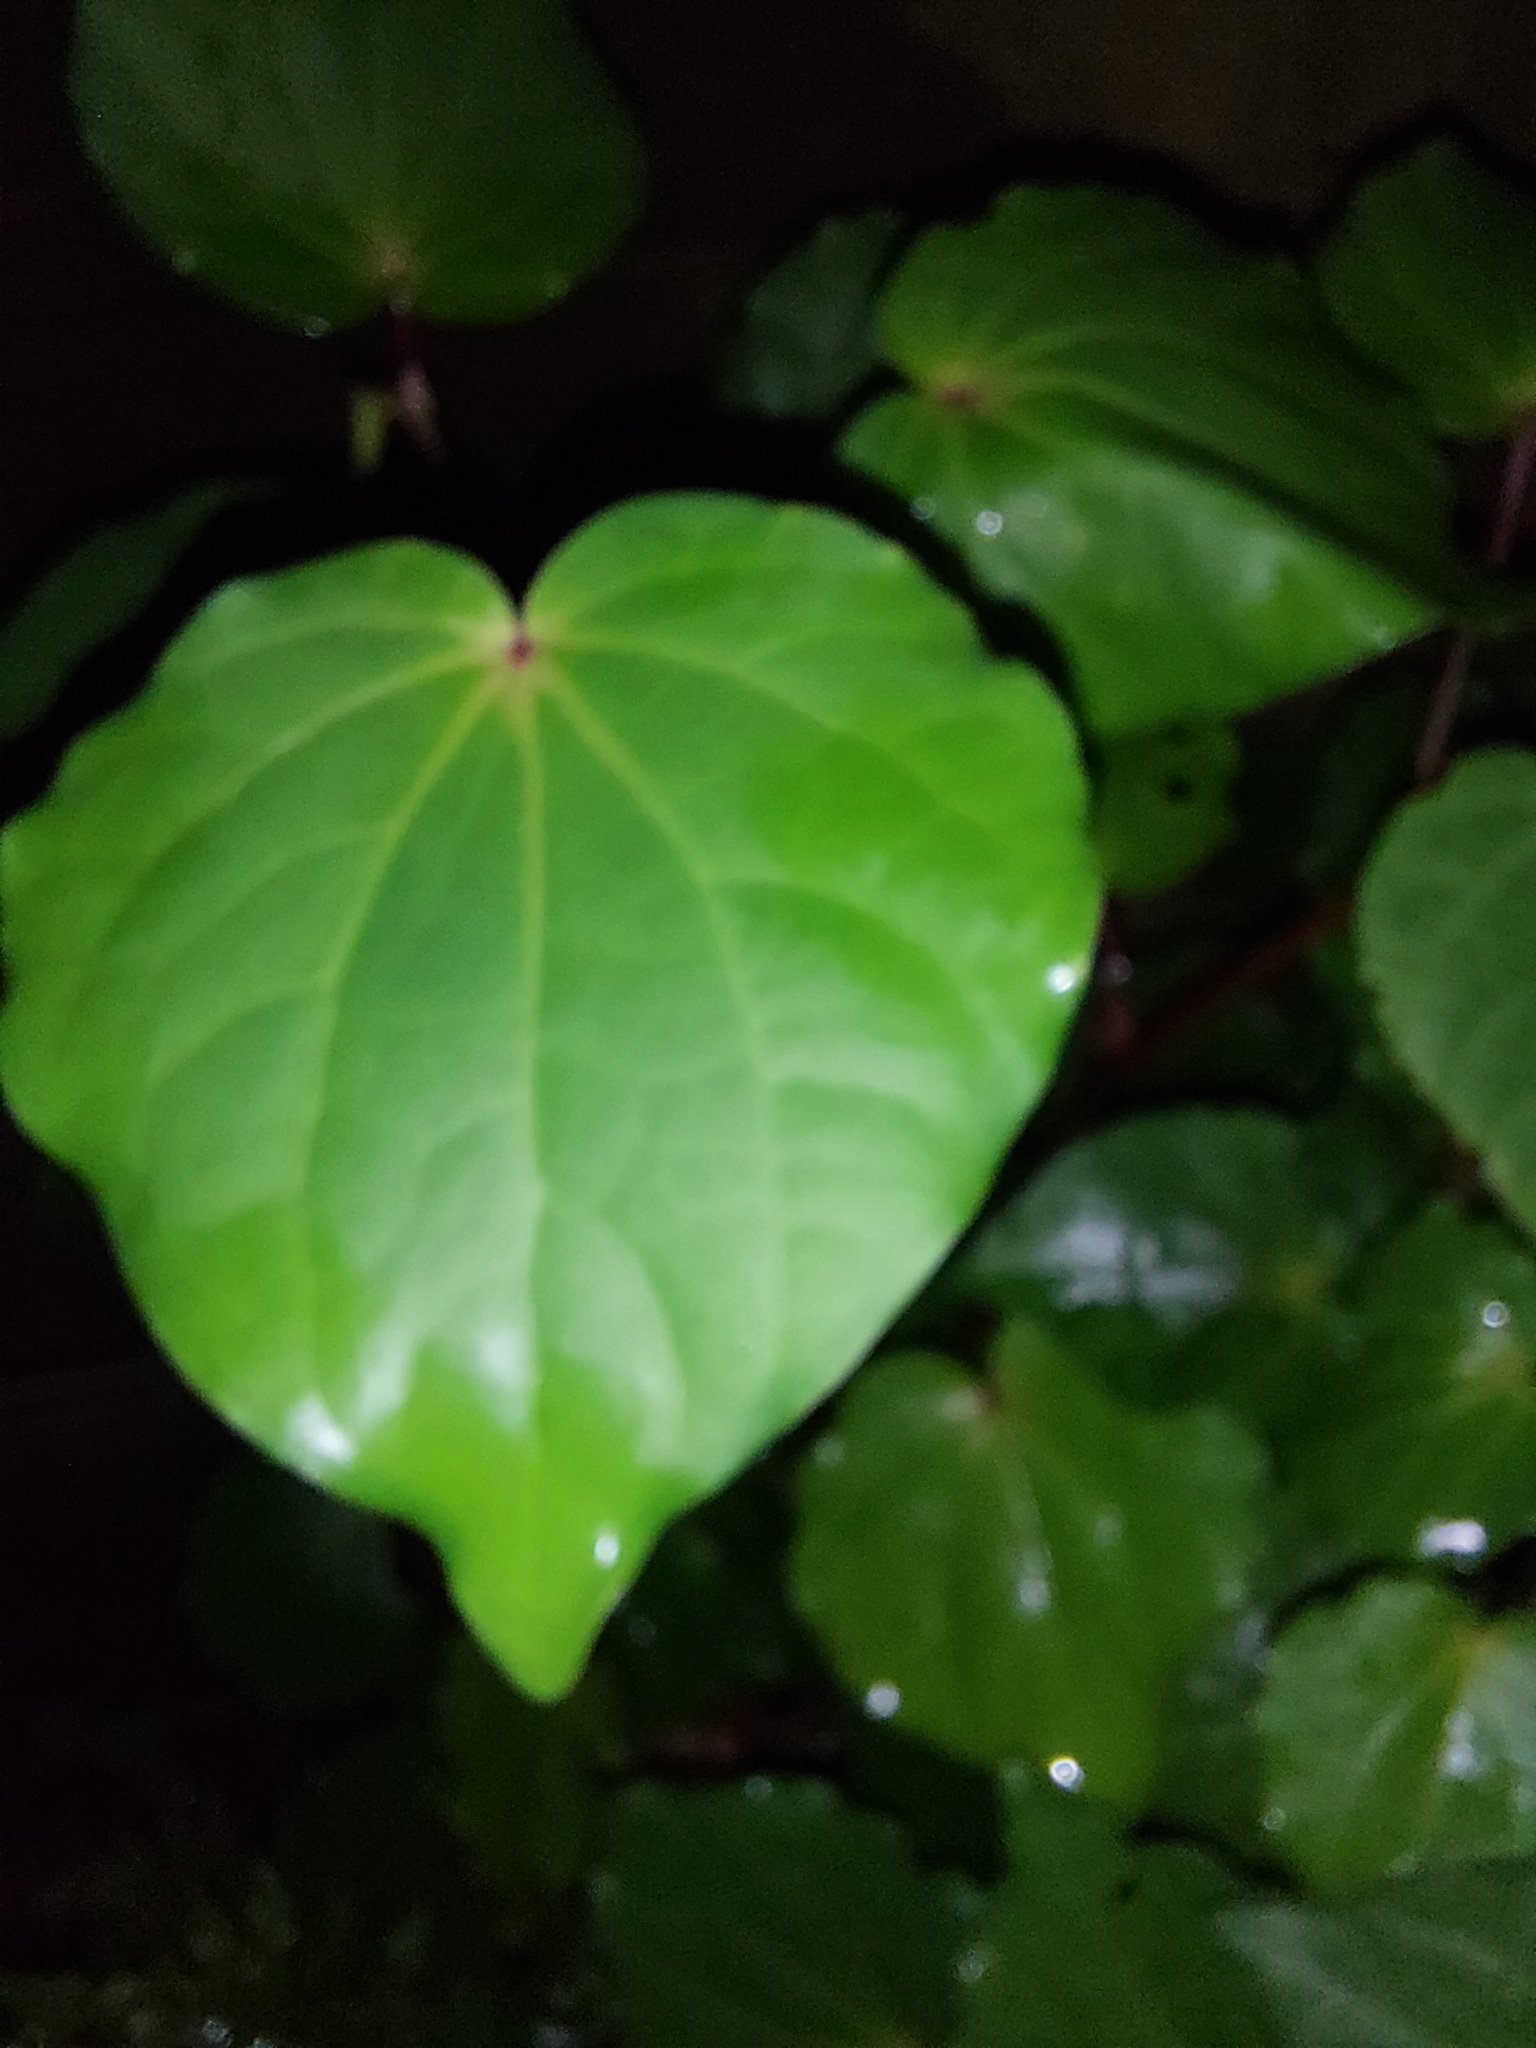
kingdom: Plantae
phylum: Tracheophyta
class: Magnoliopsida
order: Piperales
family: Piperaceae
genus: Macropiper
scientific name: Macropiper excelsum
